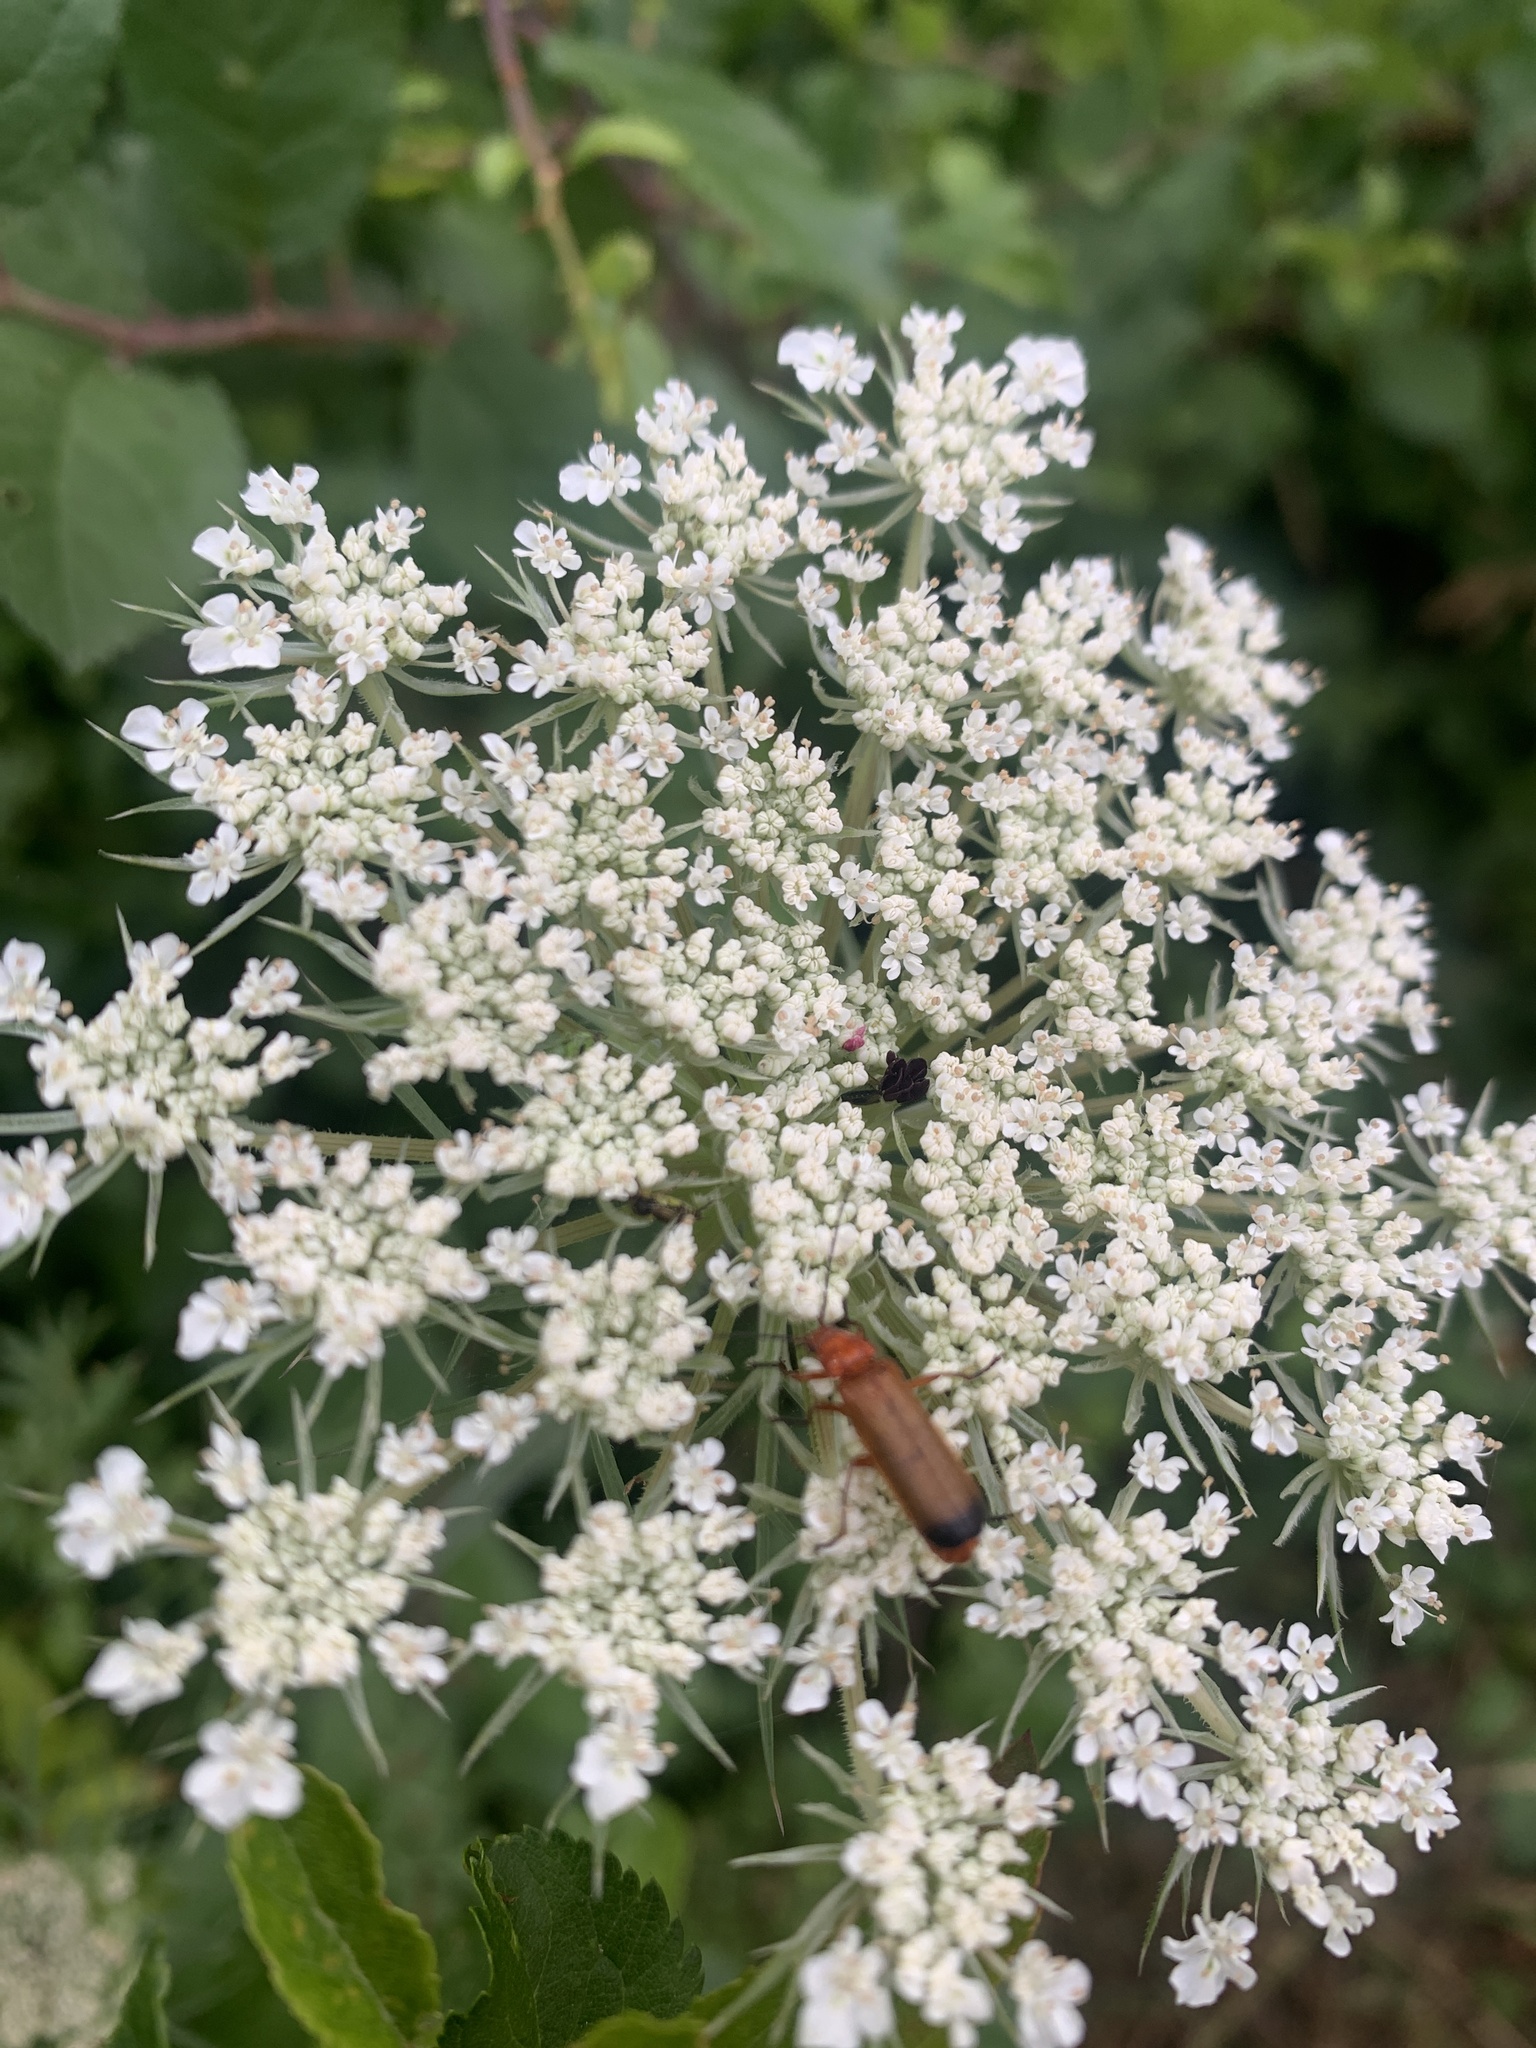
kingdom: Animalia
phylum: Arthropoda
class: Insecta
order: Coleoptera
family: Cantharidae
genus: Rhagonycha
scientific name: Rhagonycha fulva
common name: Common red soldier beetle
